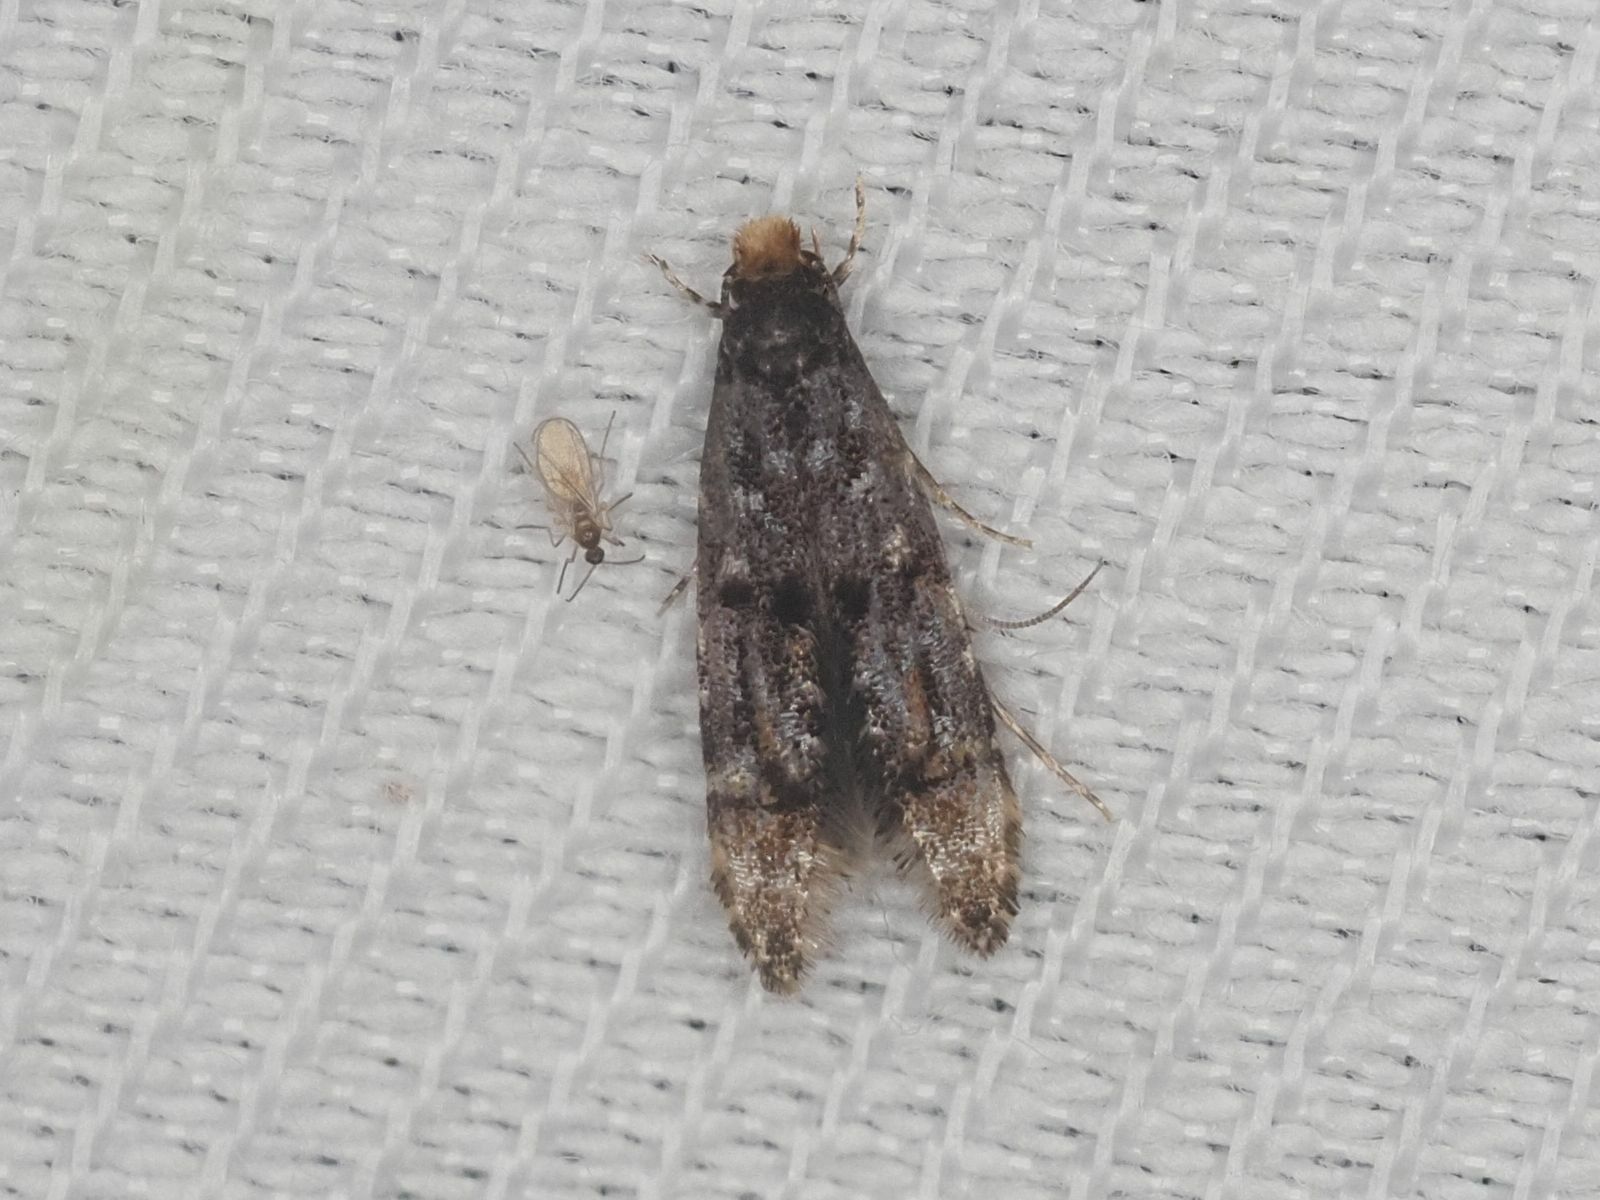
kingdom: Animalia
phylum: Arthropoda
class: Insecta
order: Lepidoptera
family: Meessiidae
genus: Stenoptinea
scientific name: Stenoptinea cyaneimarmorella
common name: Barred brown clothes moth
